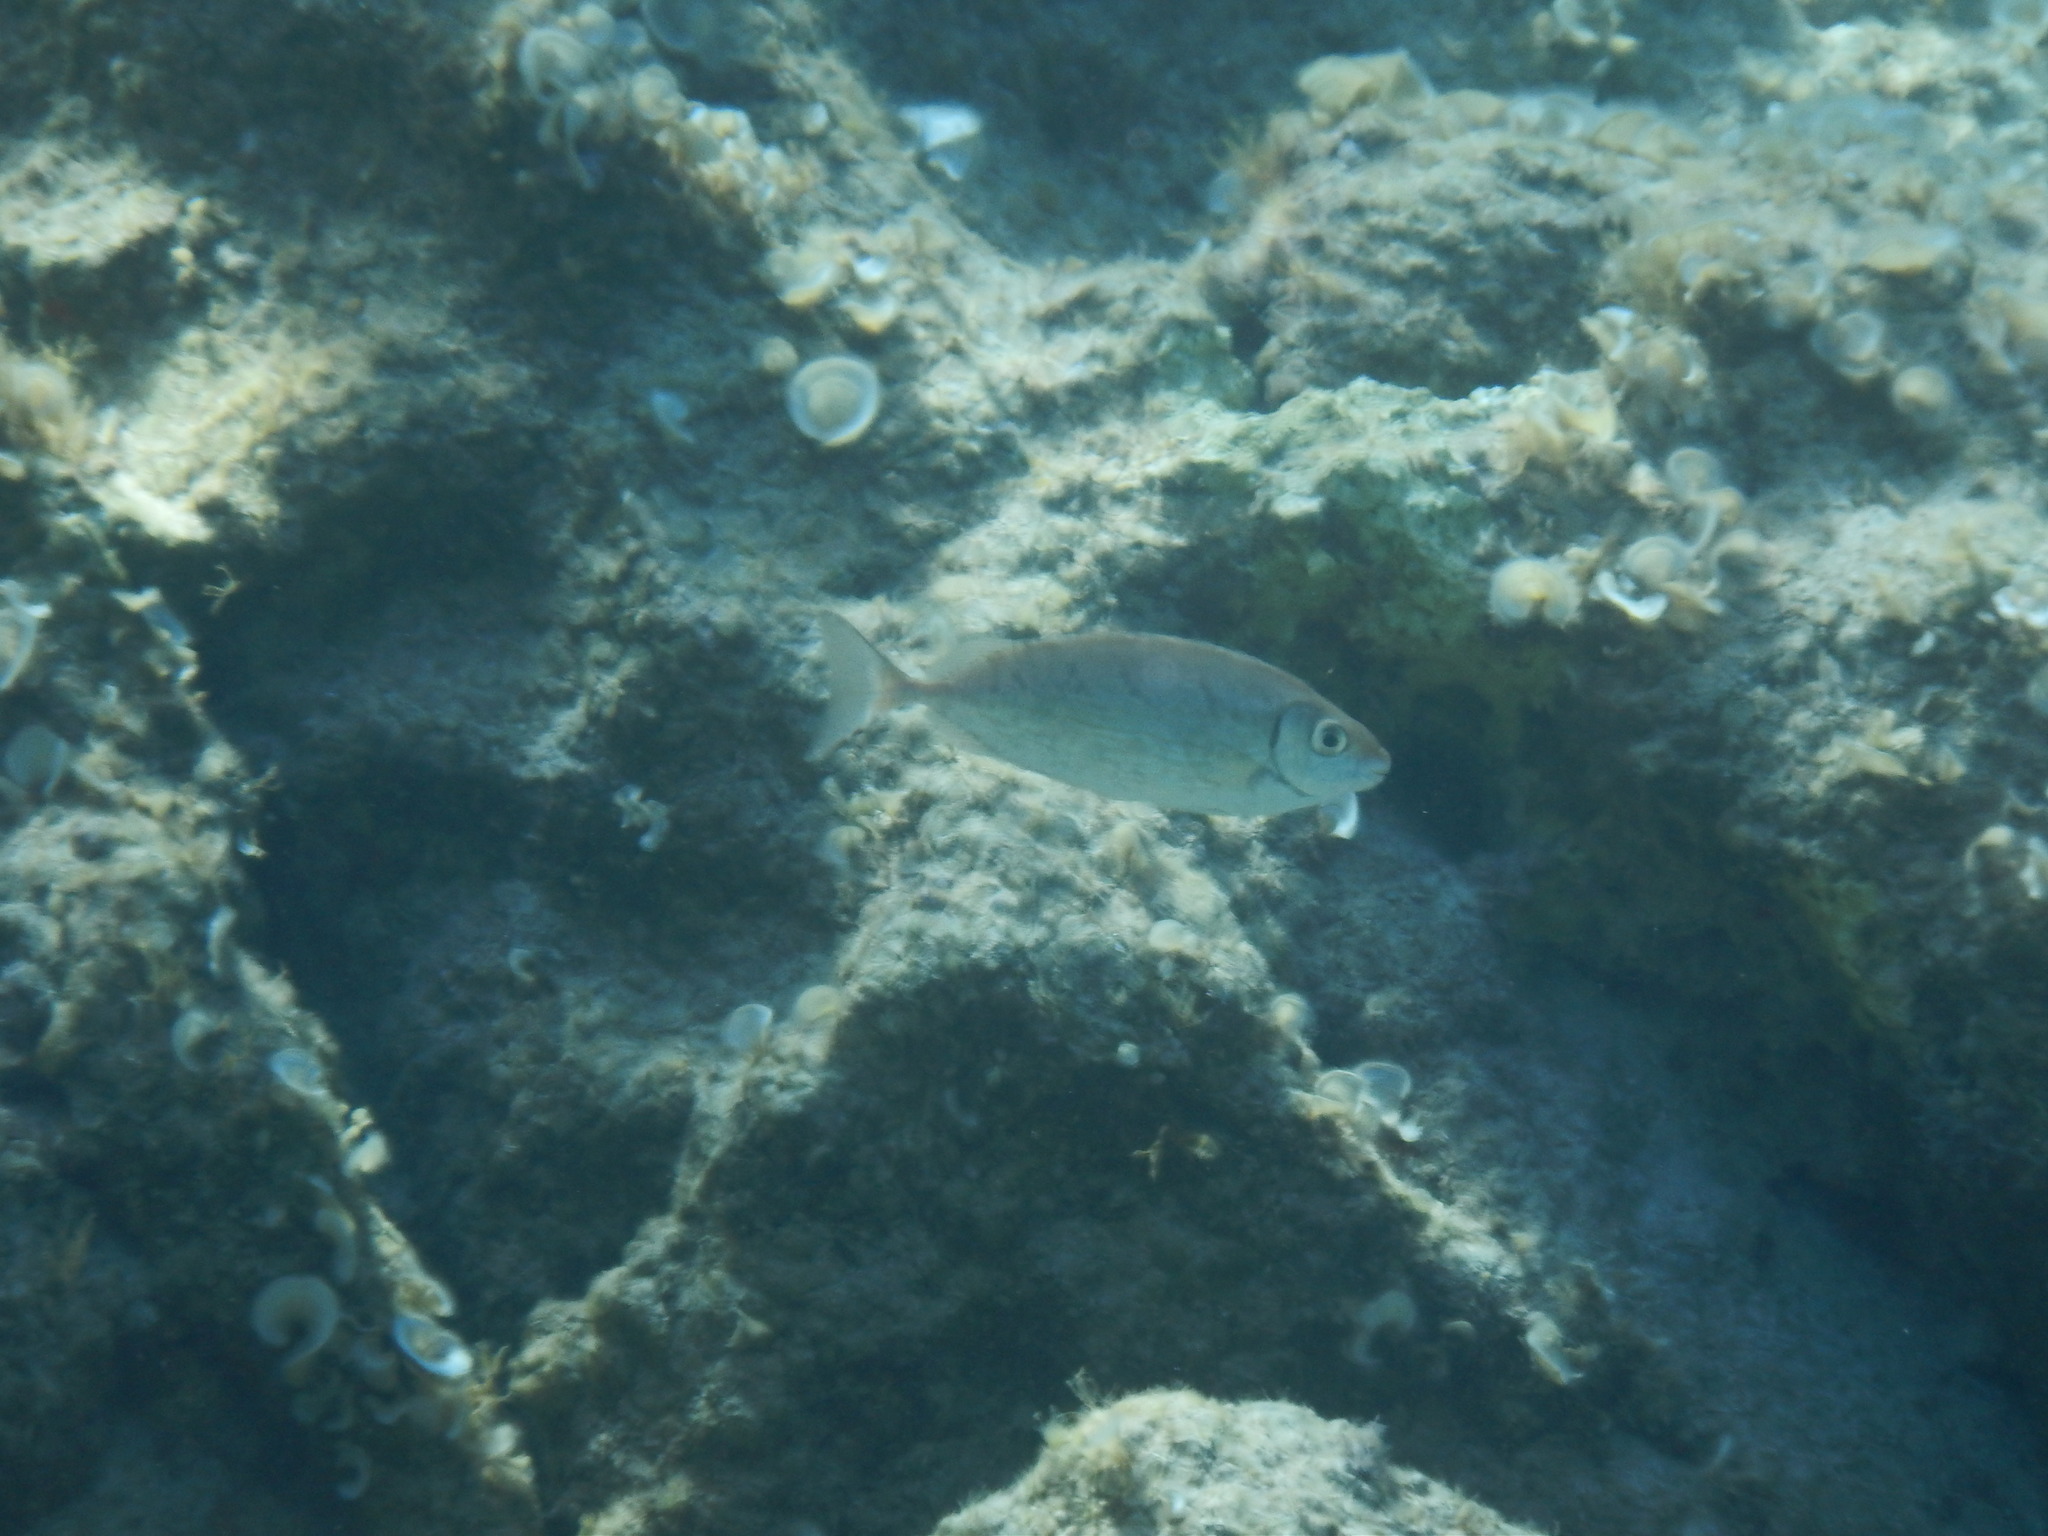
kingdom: Animalia
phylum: Chordata
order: Perciformes
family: Siganidae
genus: Siganus
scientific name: Siganus rivulatus
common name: Marbled spinefoot
